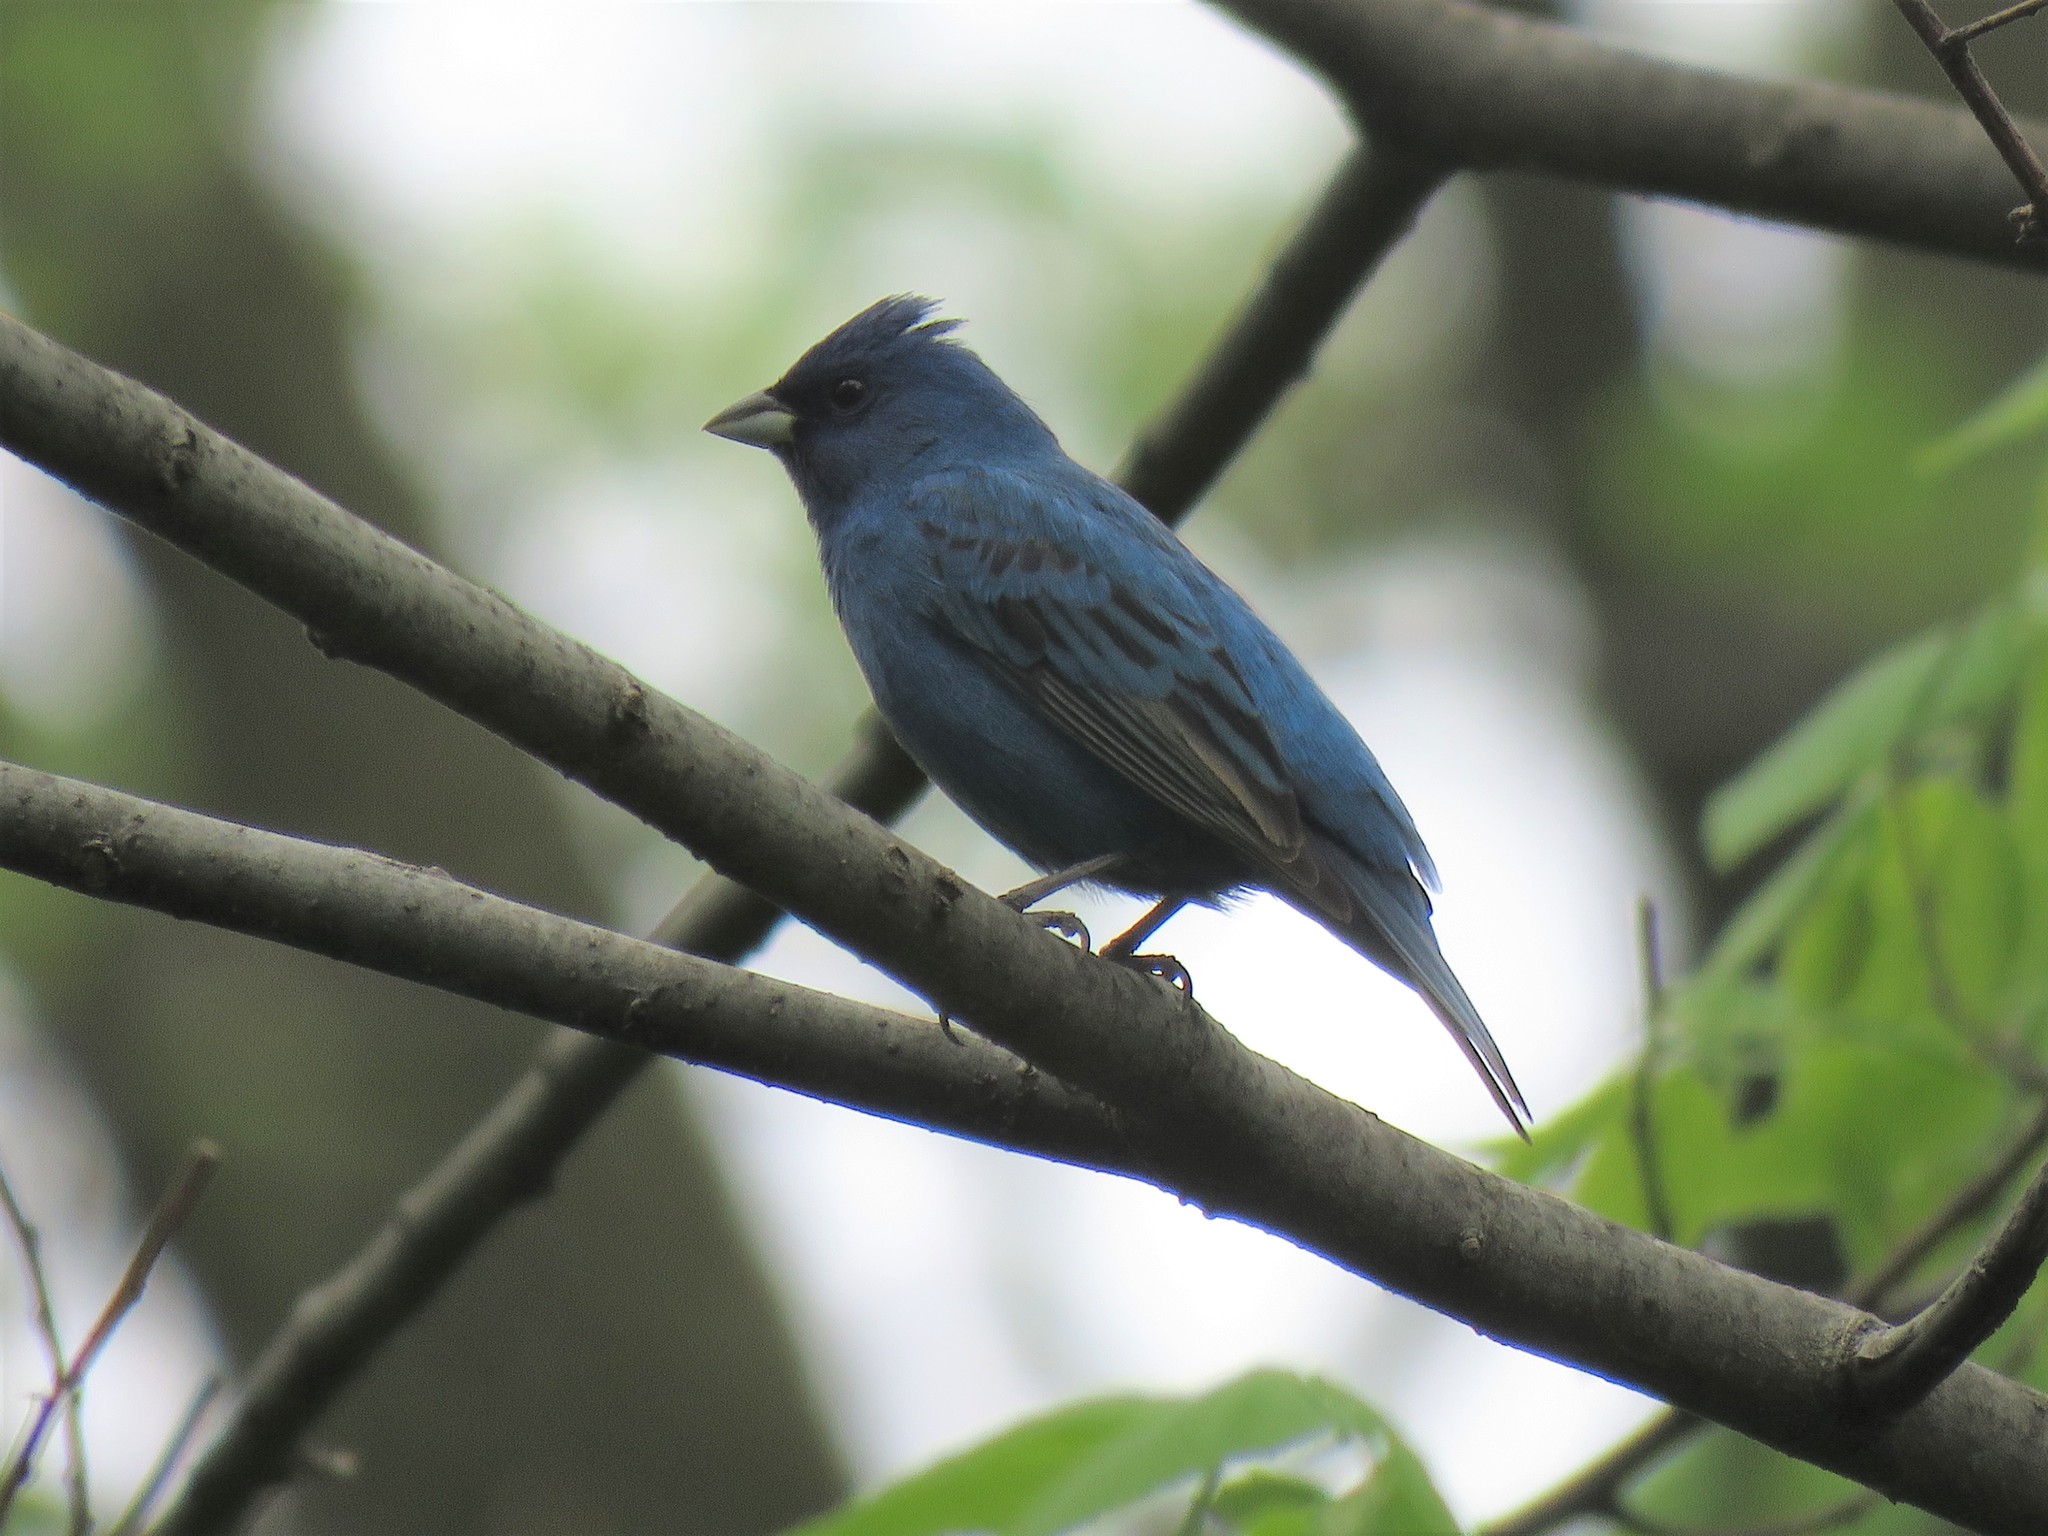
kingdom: Animalia
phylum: Chordata
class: Aves
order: Passeriformes
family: Cardinalidae
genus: Passerina
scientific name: Passerina cyanea
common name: Indigo bunting
